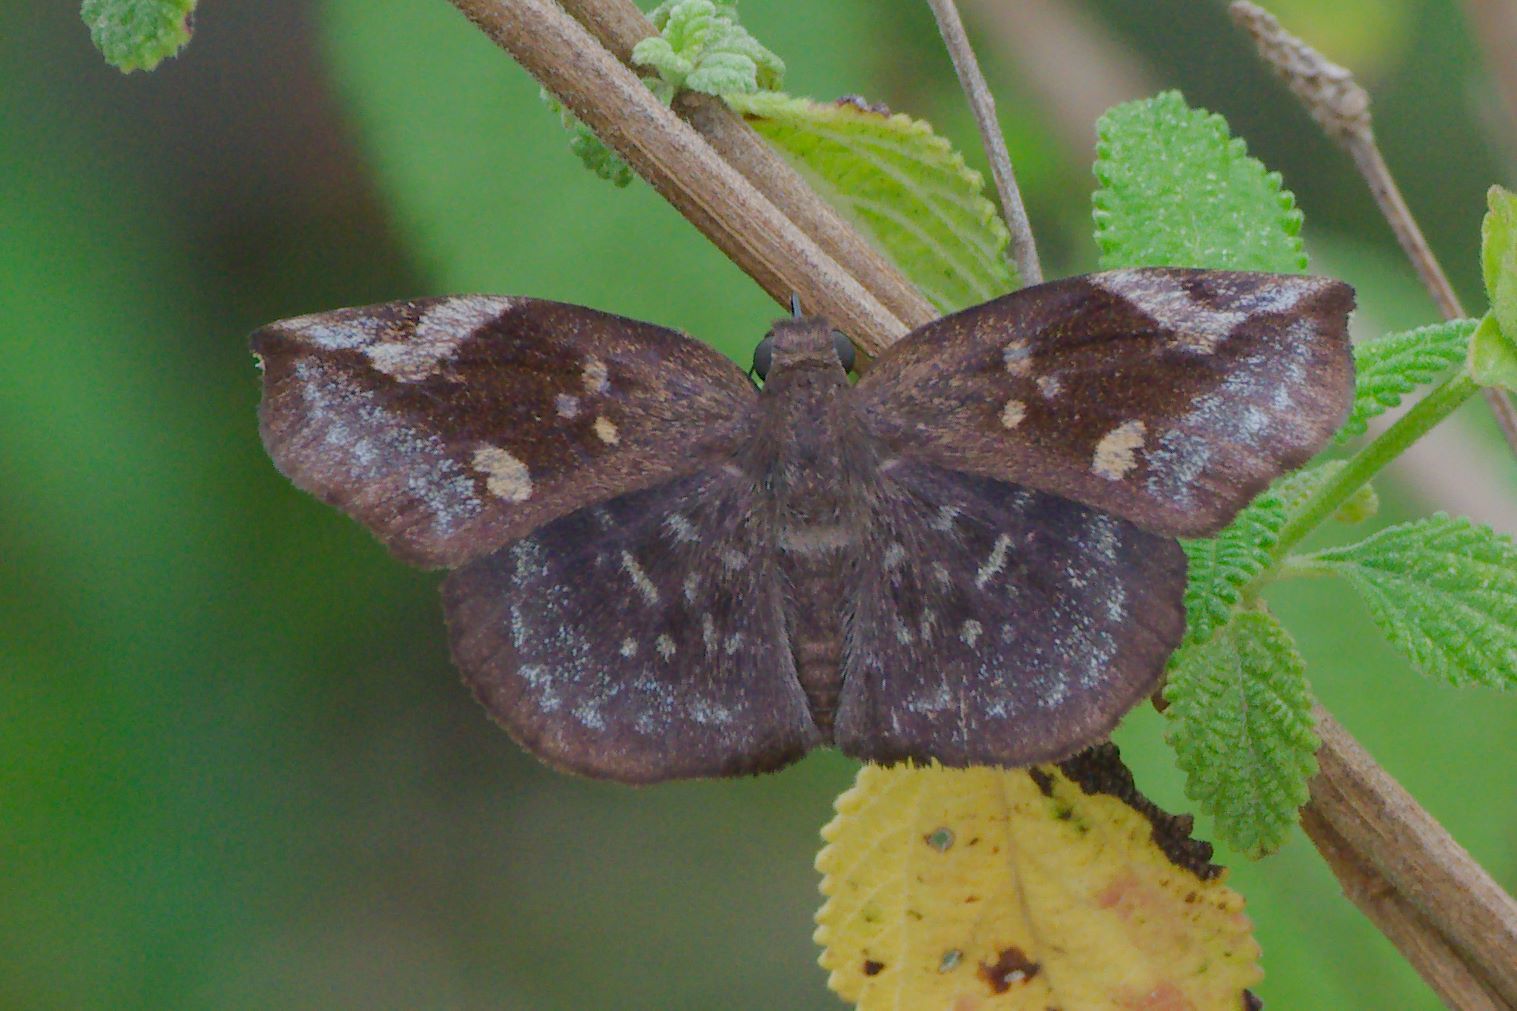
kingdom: Animalia
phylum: Arthropoda
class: Insecta
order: Lepidoptera
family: Hesperiidae
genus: Achlyodes
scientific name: Achlyodes thraso
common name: Sickle-winged skipper
